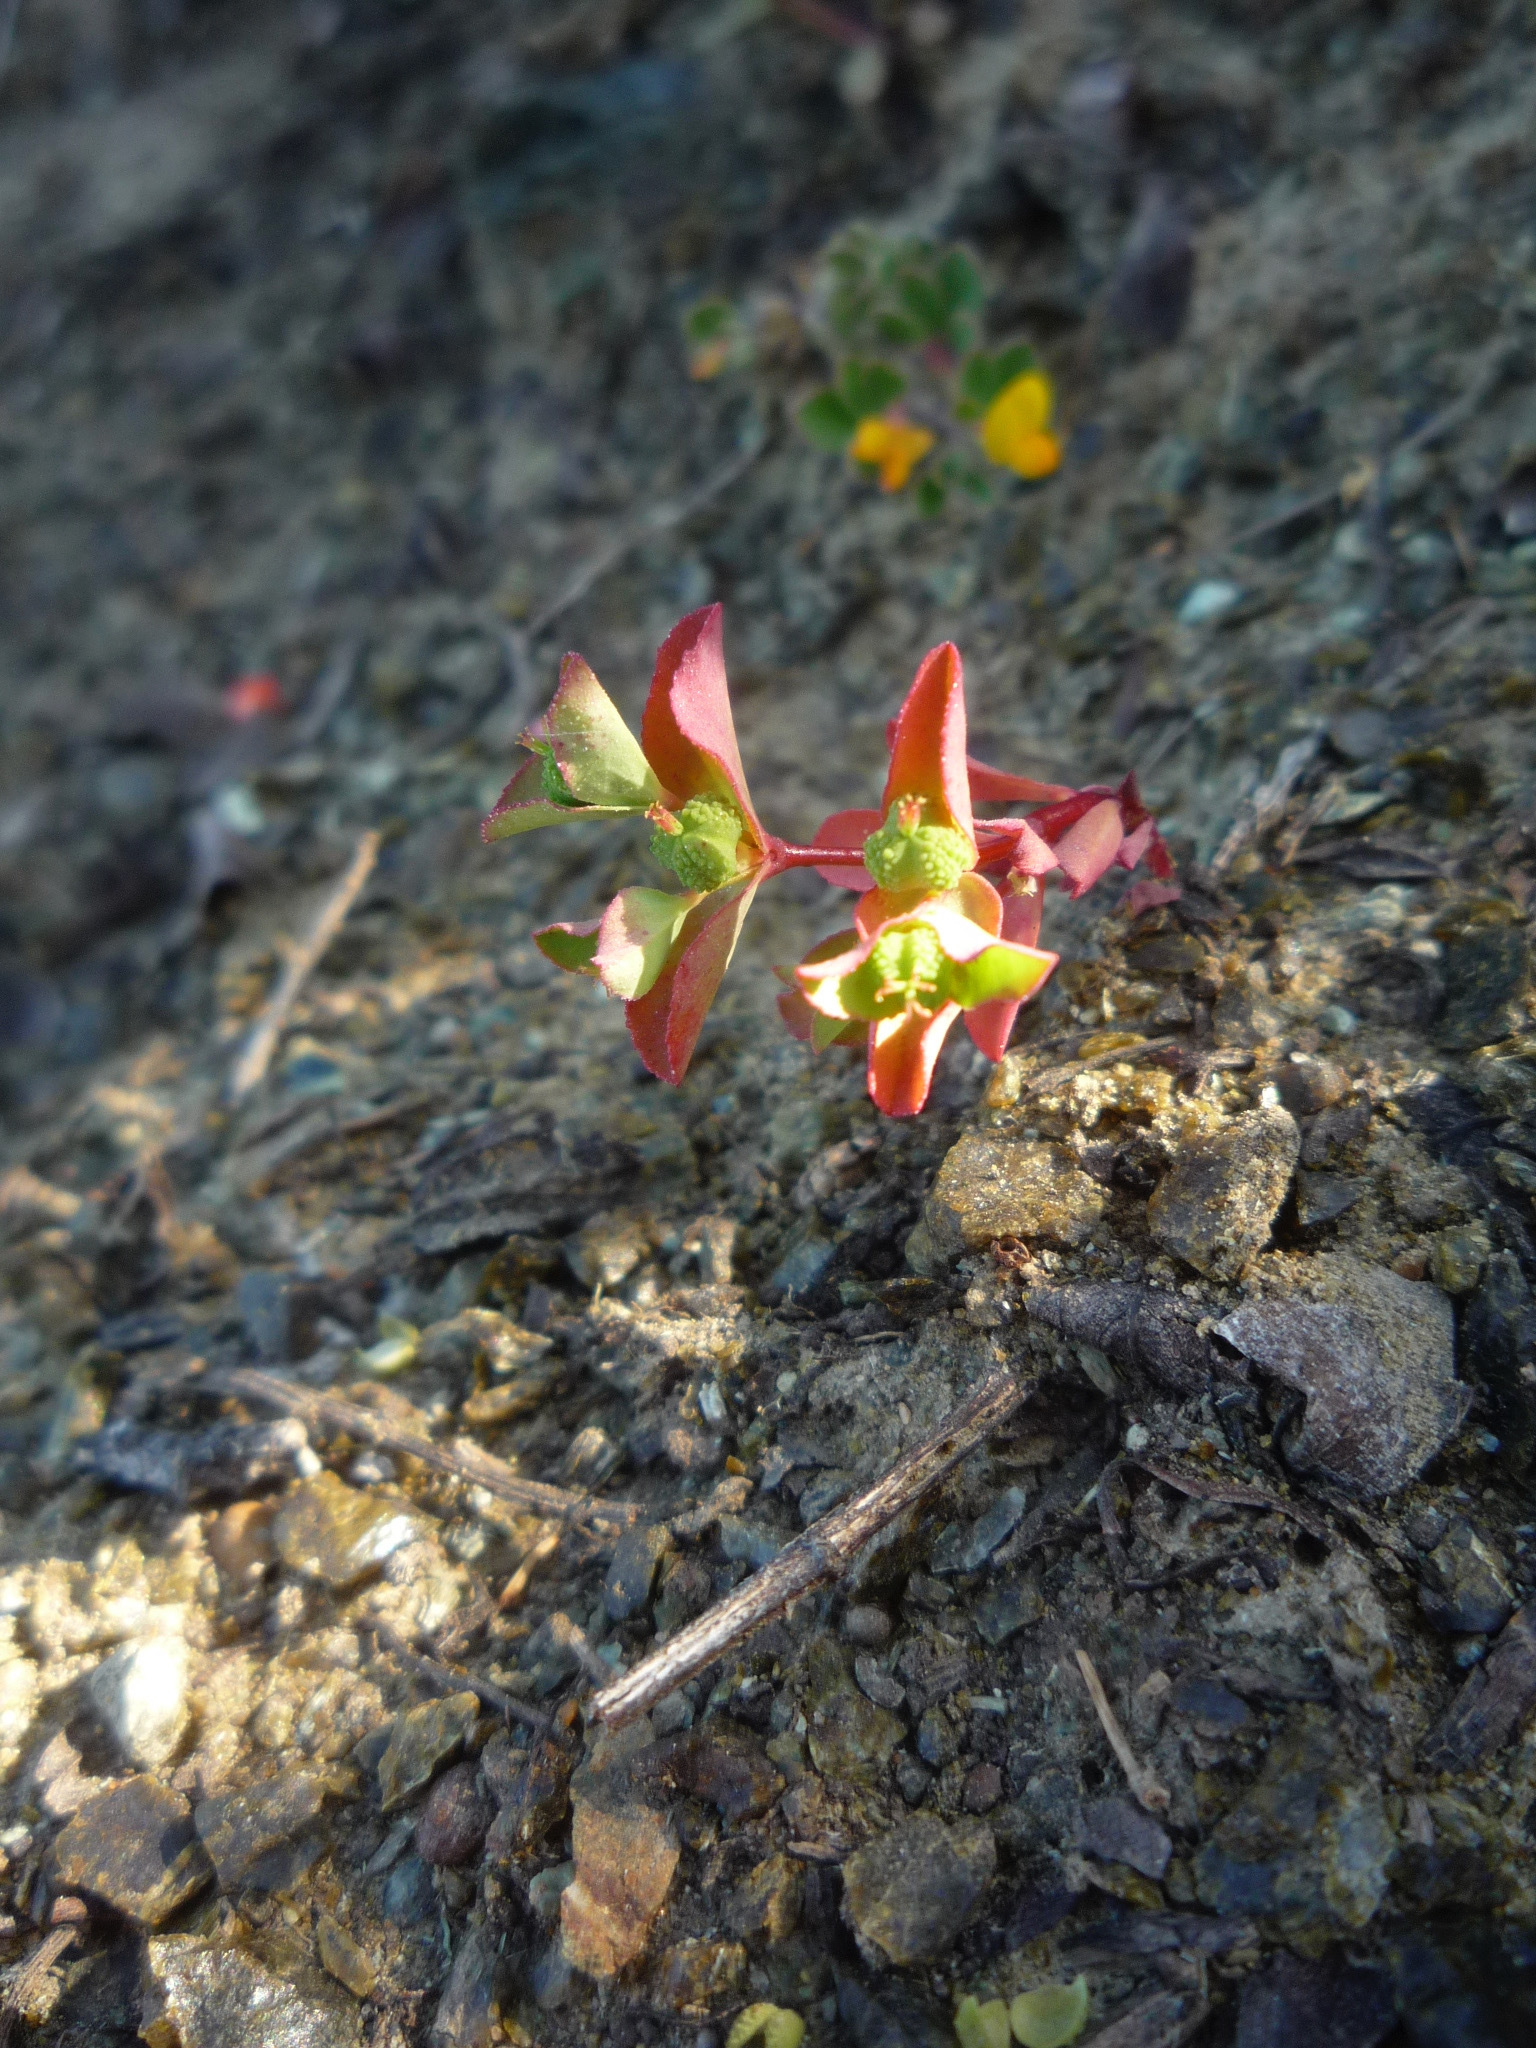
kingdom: Plantae
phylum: Tracheophyta
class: Magnoliopsida
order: Malpighiales
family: Euphorbiaceae
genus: Euphorbia
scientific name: Euphorbia spathulata
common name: Blunt spurge
